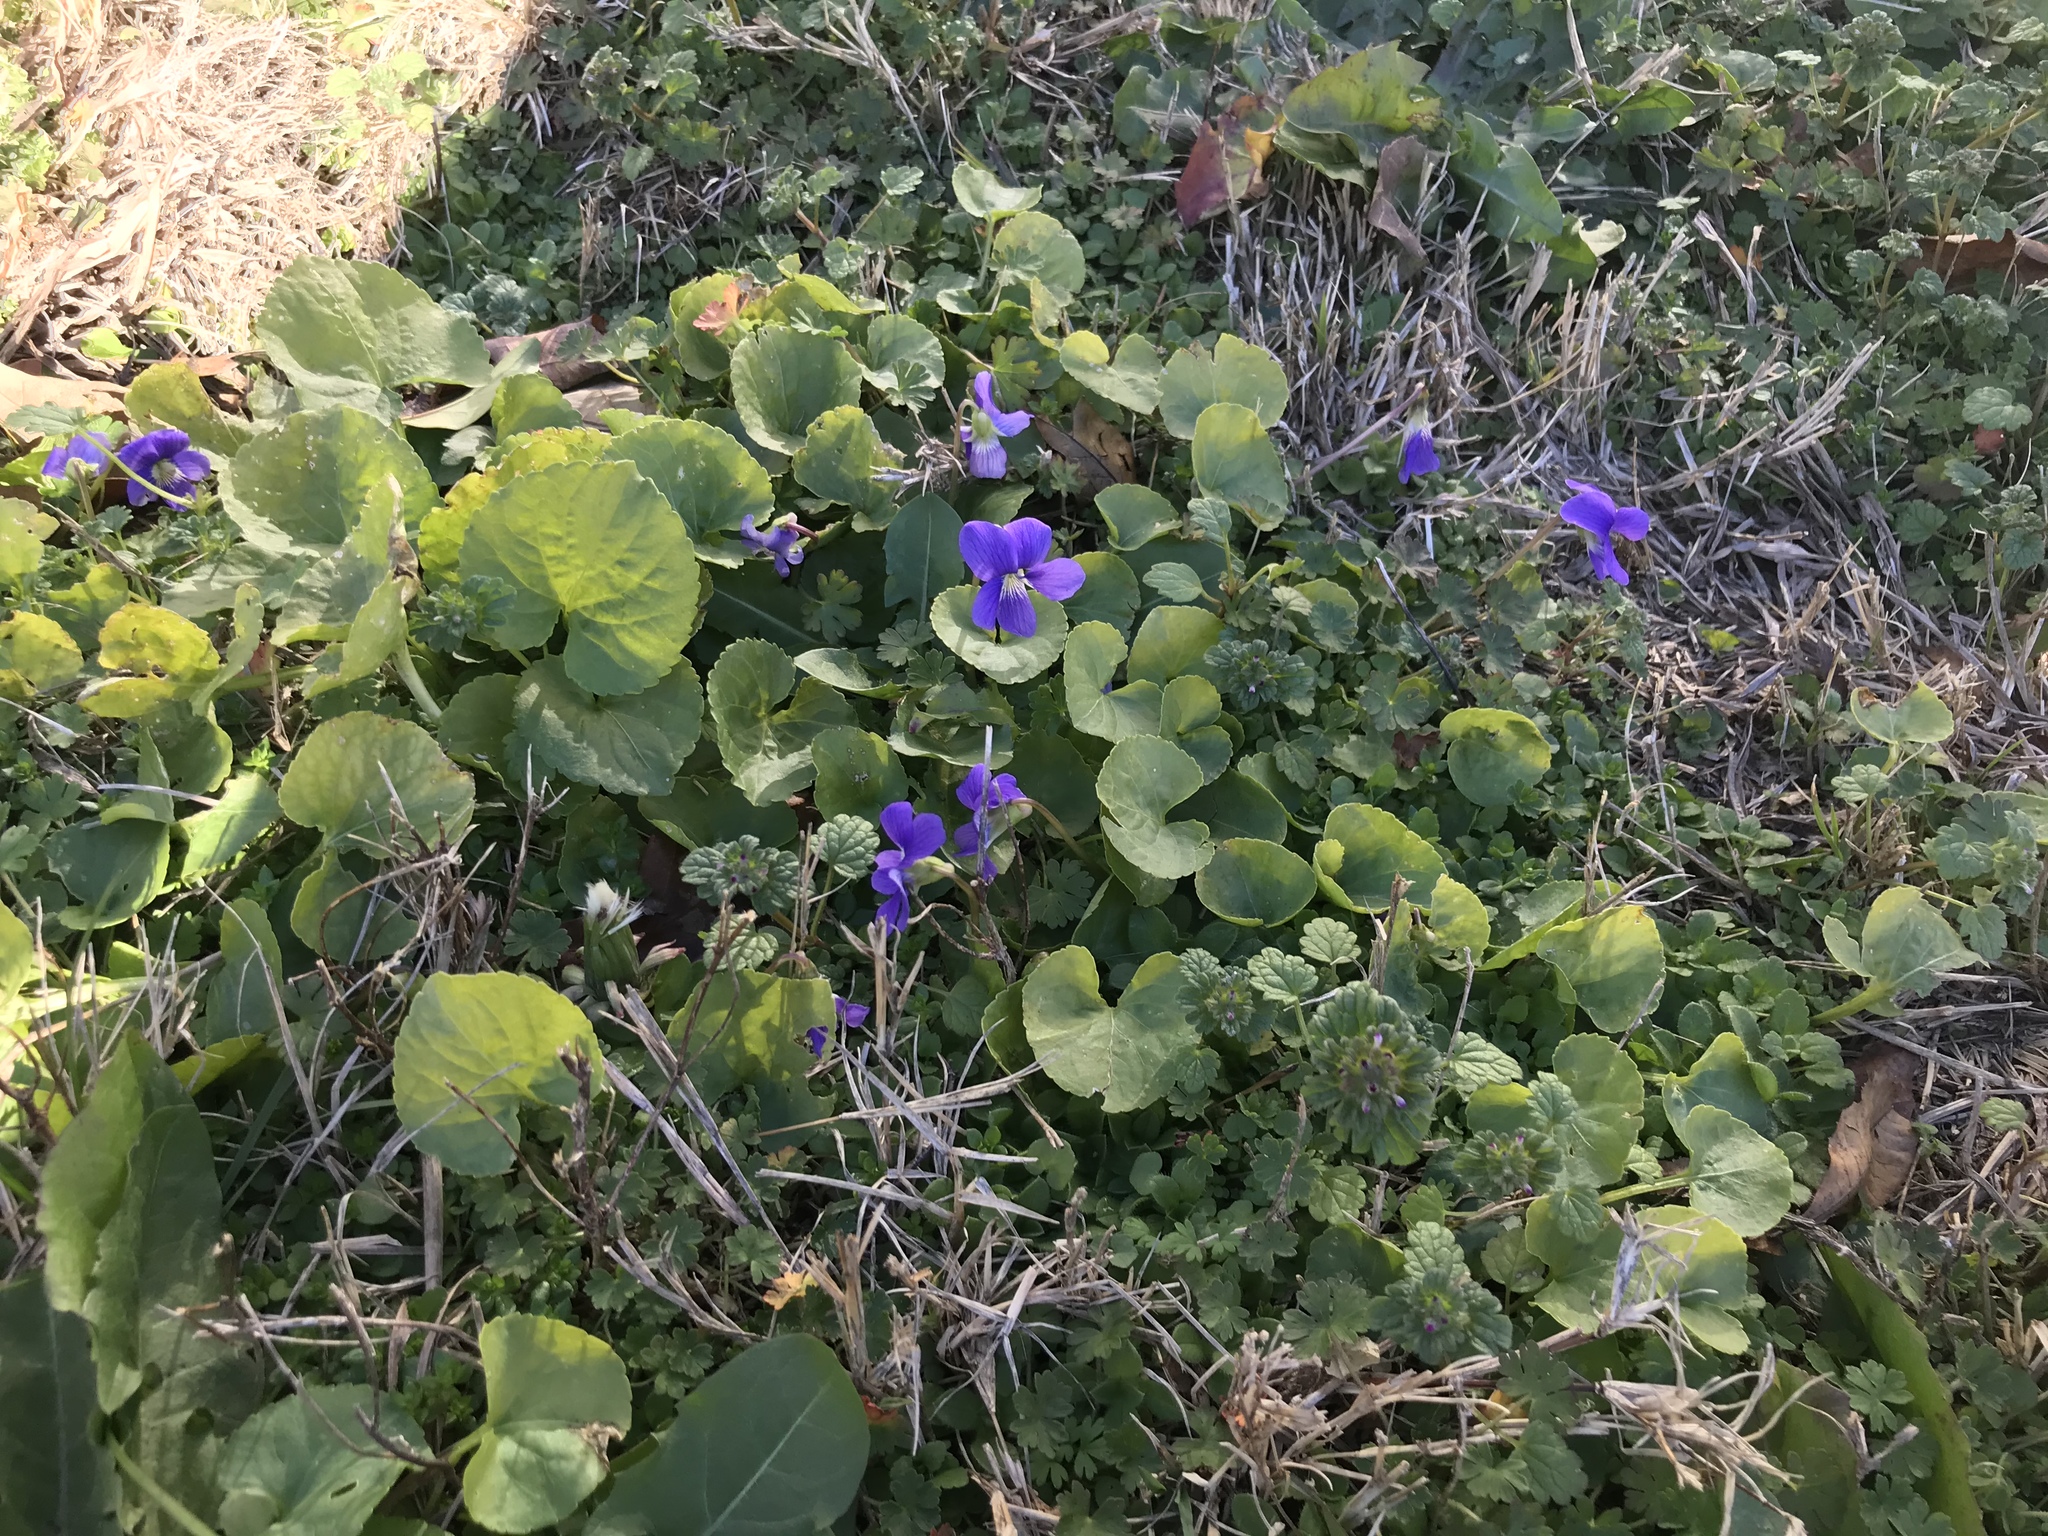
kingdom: Plantae
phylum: Tracheophyta
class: Magnoliopsida
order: Malpighiales
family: Violaceae
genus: Viola
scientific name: Viola sororia
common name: Dooryard violet
